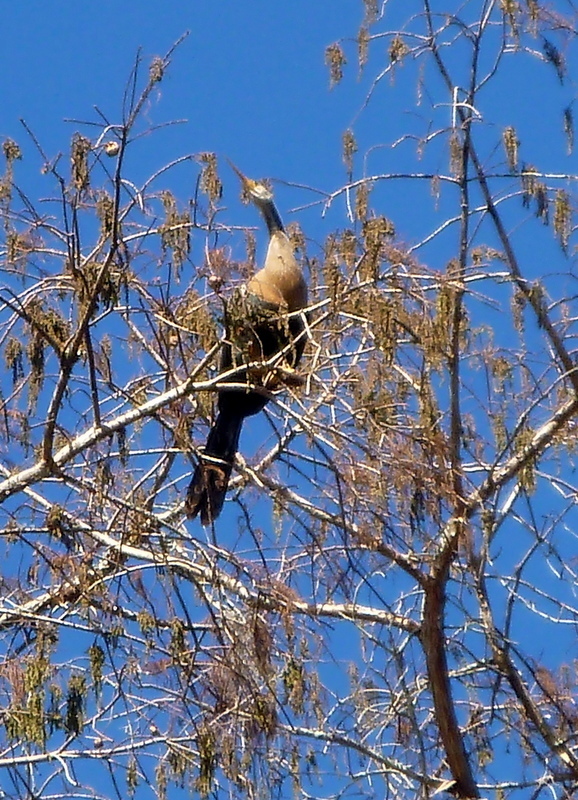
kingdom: Animalia
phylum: Chordata
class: Aves
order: Suliformes
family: Anhingidae
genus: Anhinga
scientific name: Anhinga anhinga
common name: Anhinga
